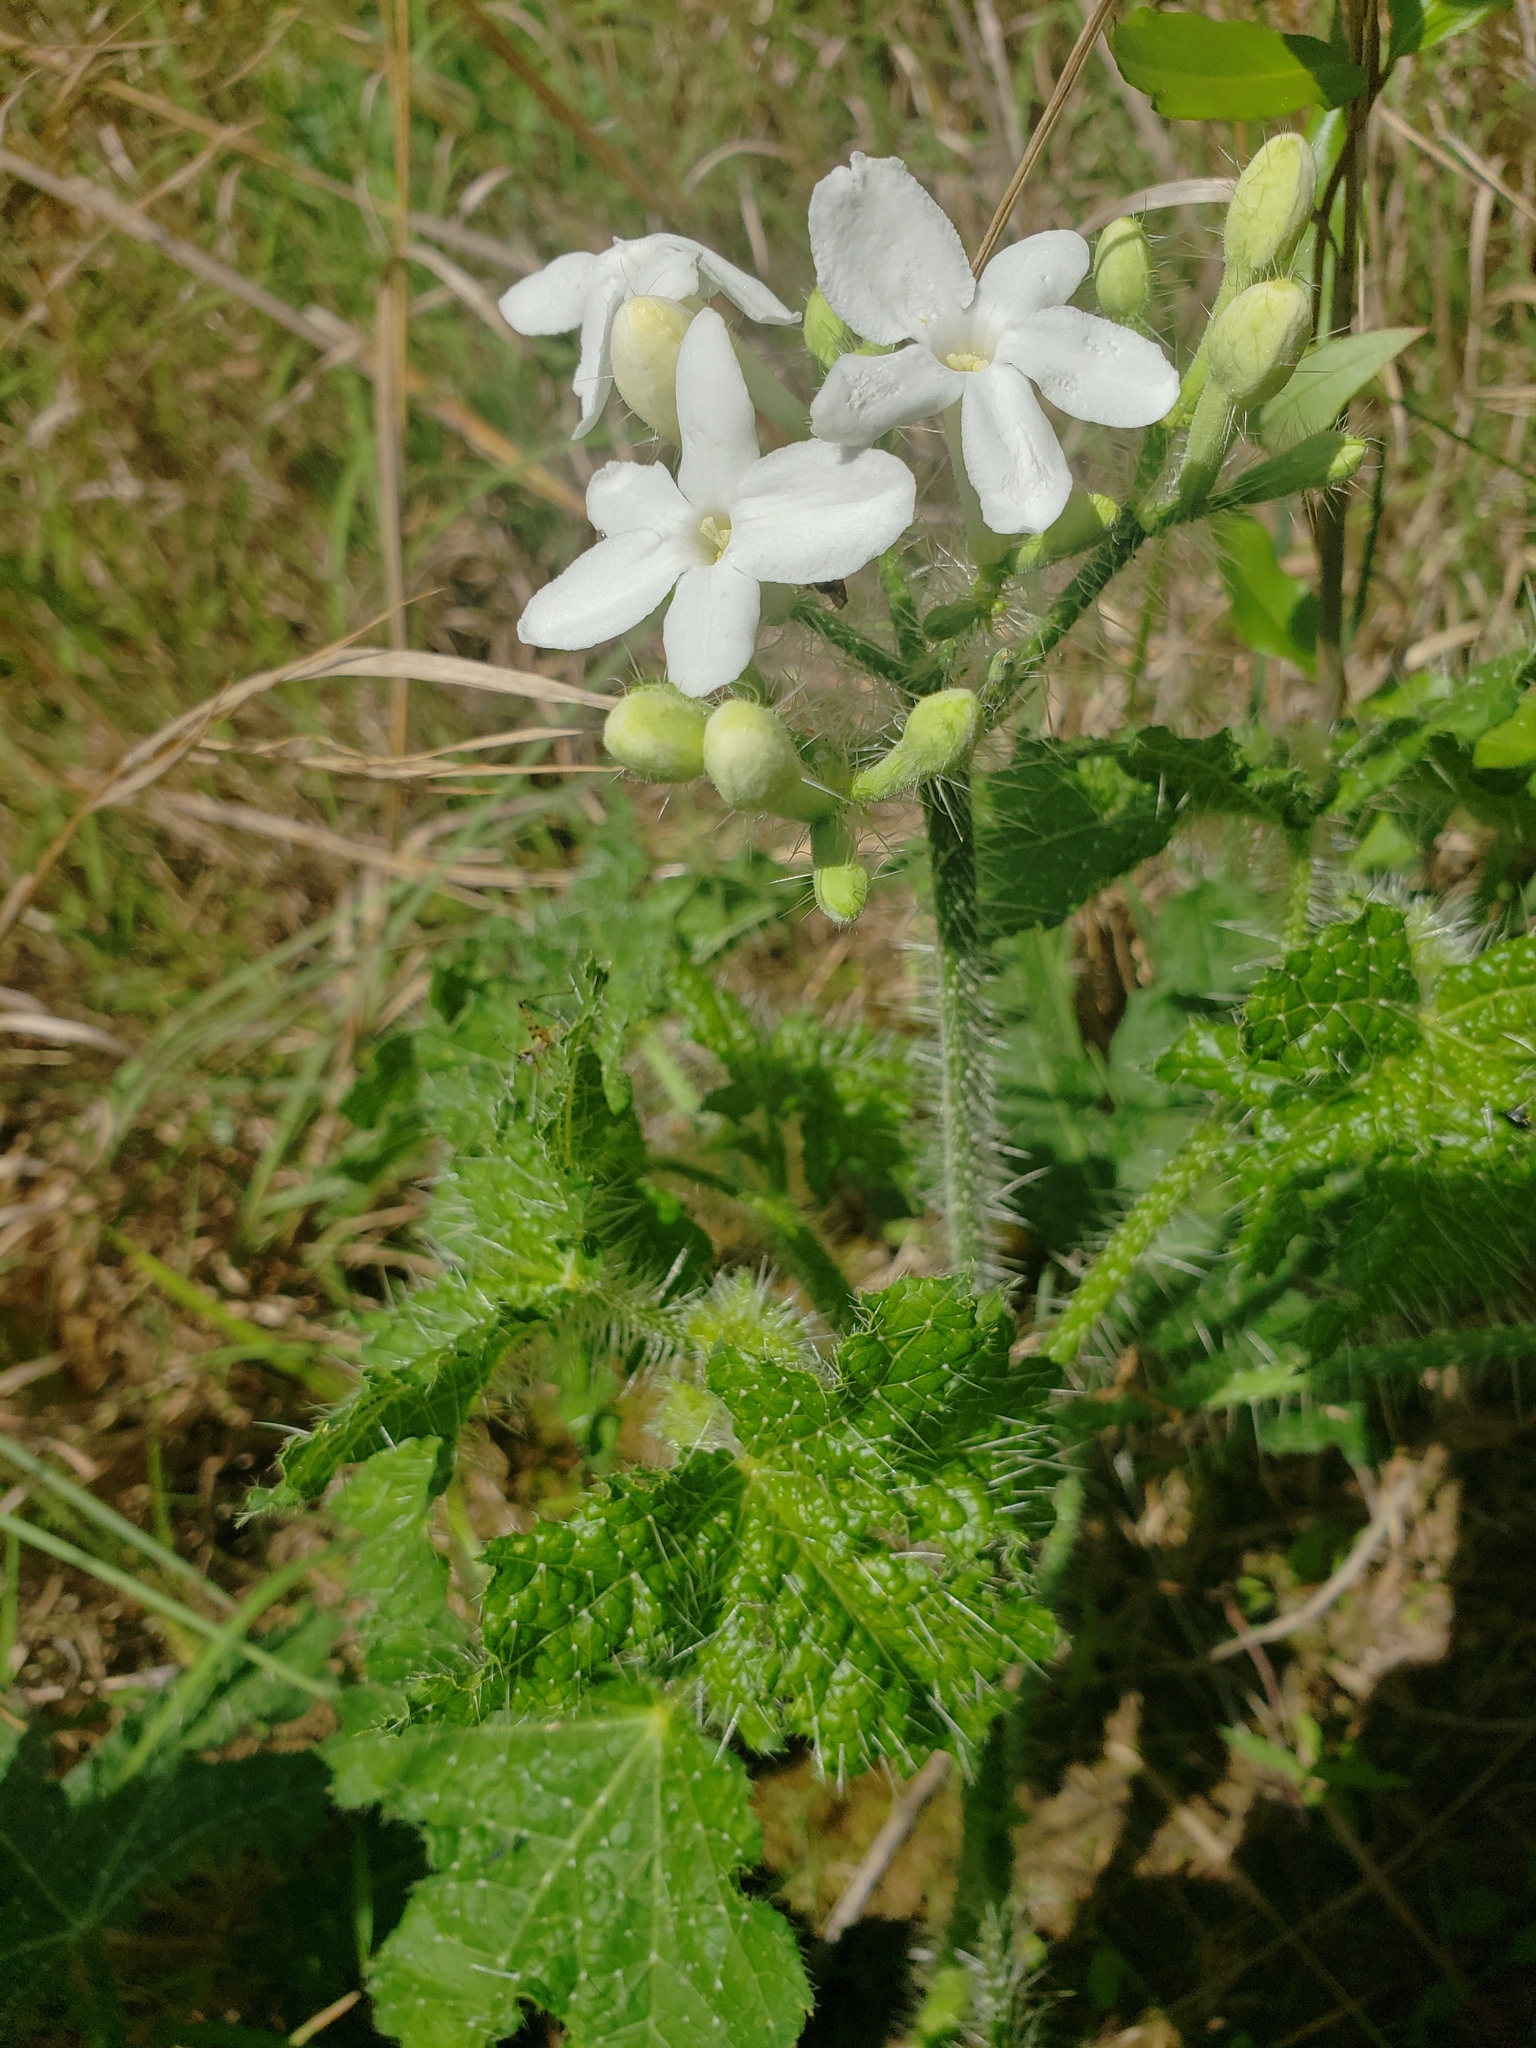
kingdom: Plantae
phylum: Tracheophyta
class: Magnoliopsida
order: Malpighiales
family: Euphorbiaceae
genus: Cnidoscolus
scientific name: Cnidoscolus texanus
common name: Texas bull-nettle
